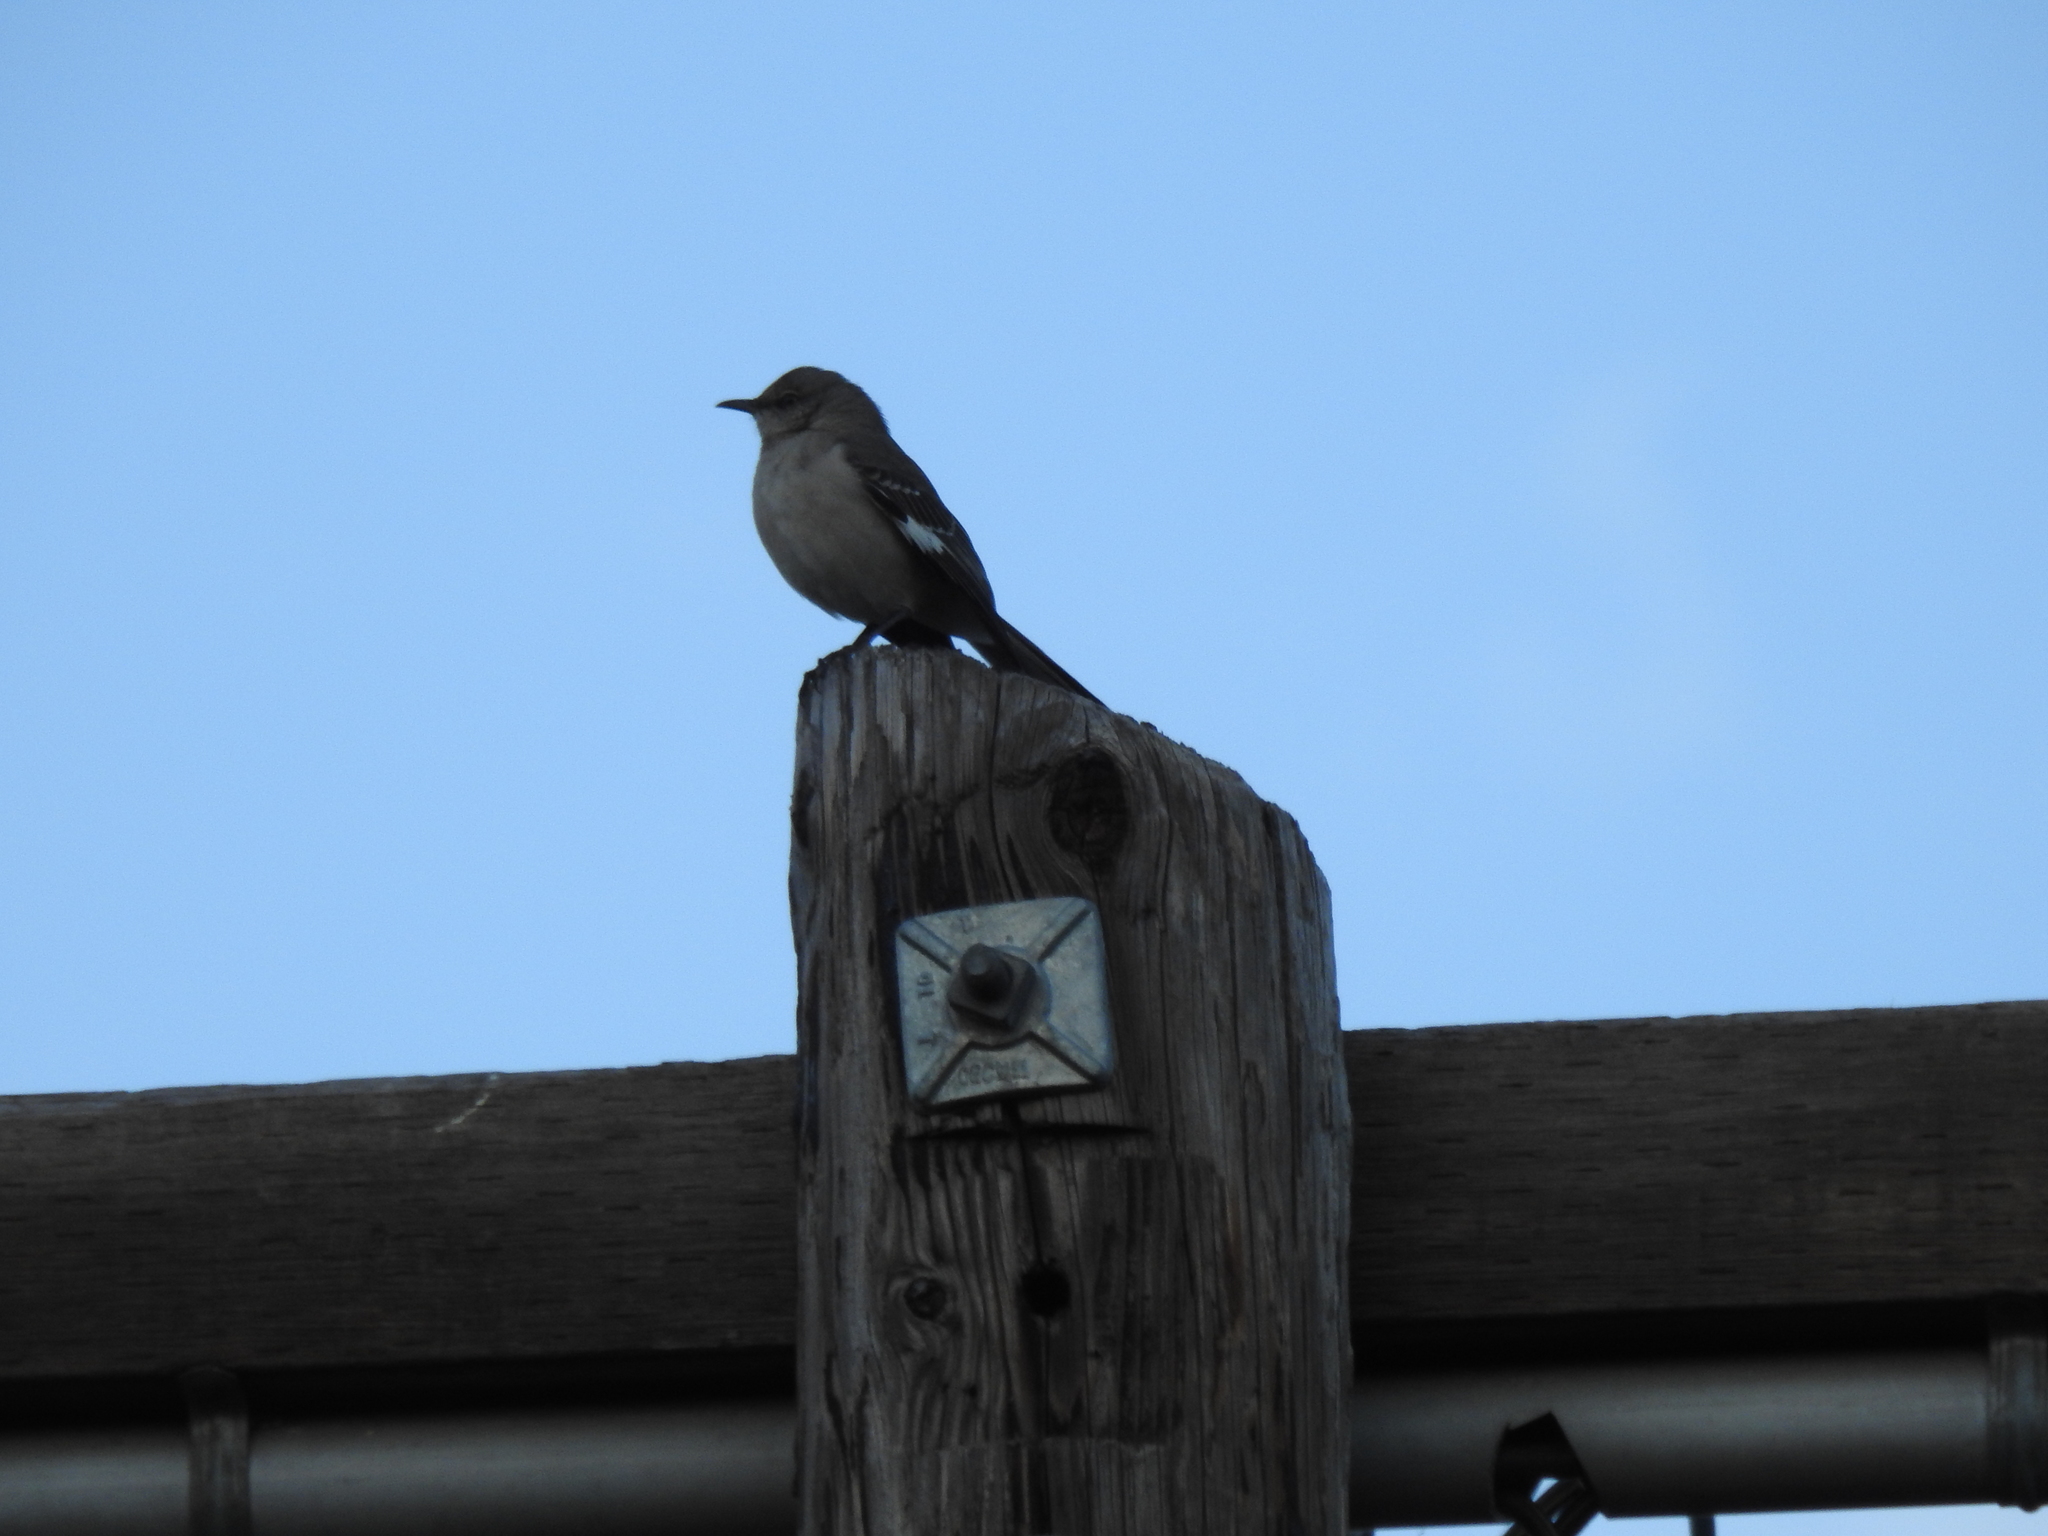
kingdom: Animalia
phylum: Chordata
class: Aves
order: Passeriformes
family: Mimidae
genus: Mimus
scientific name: Mimus polyglottos
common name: Northern mockingbird
